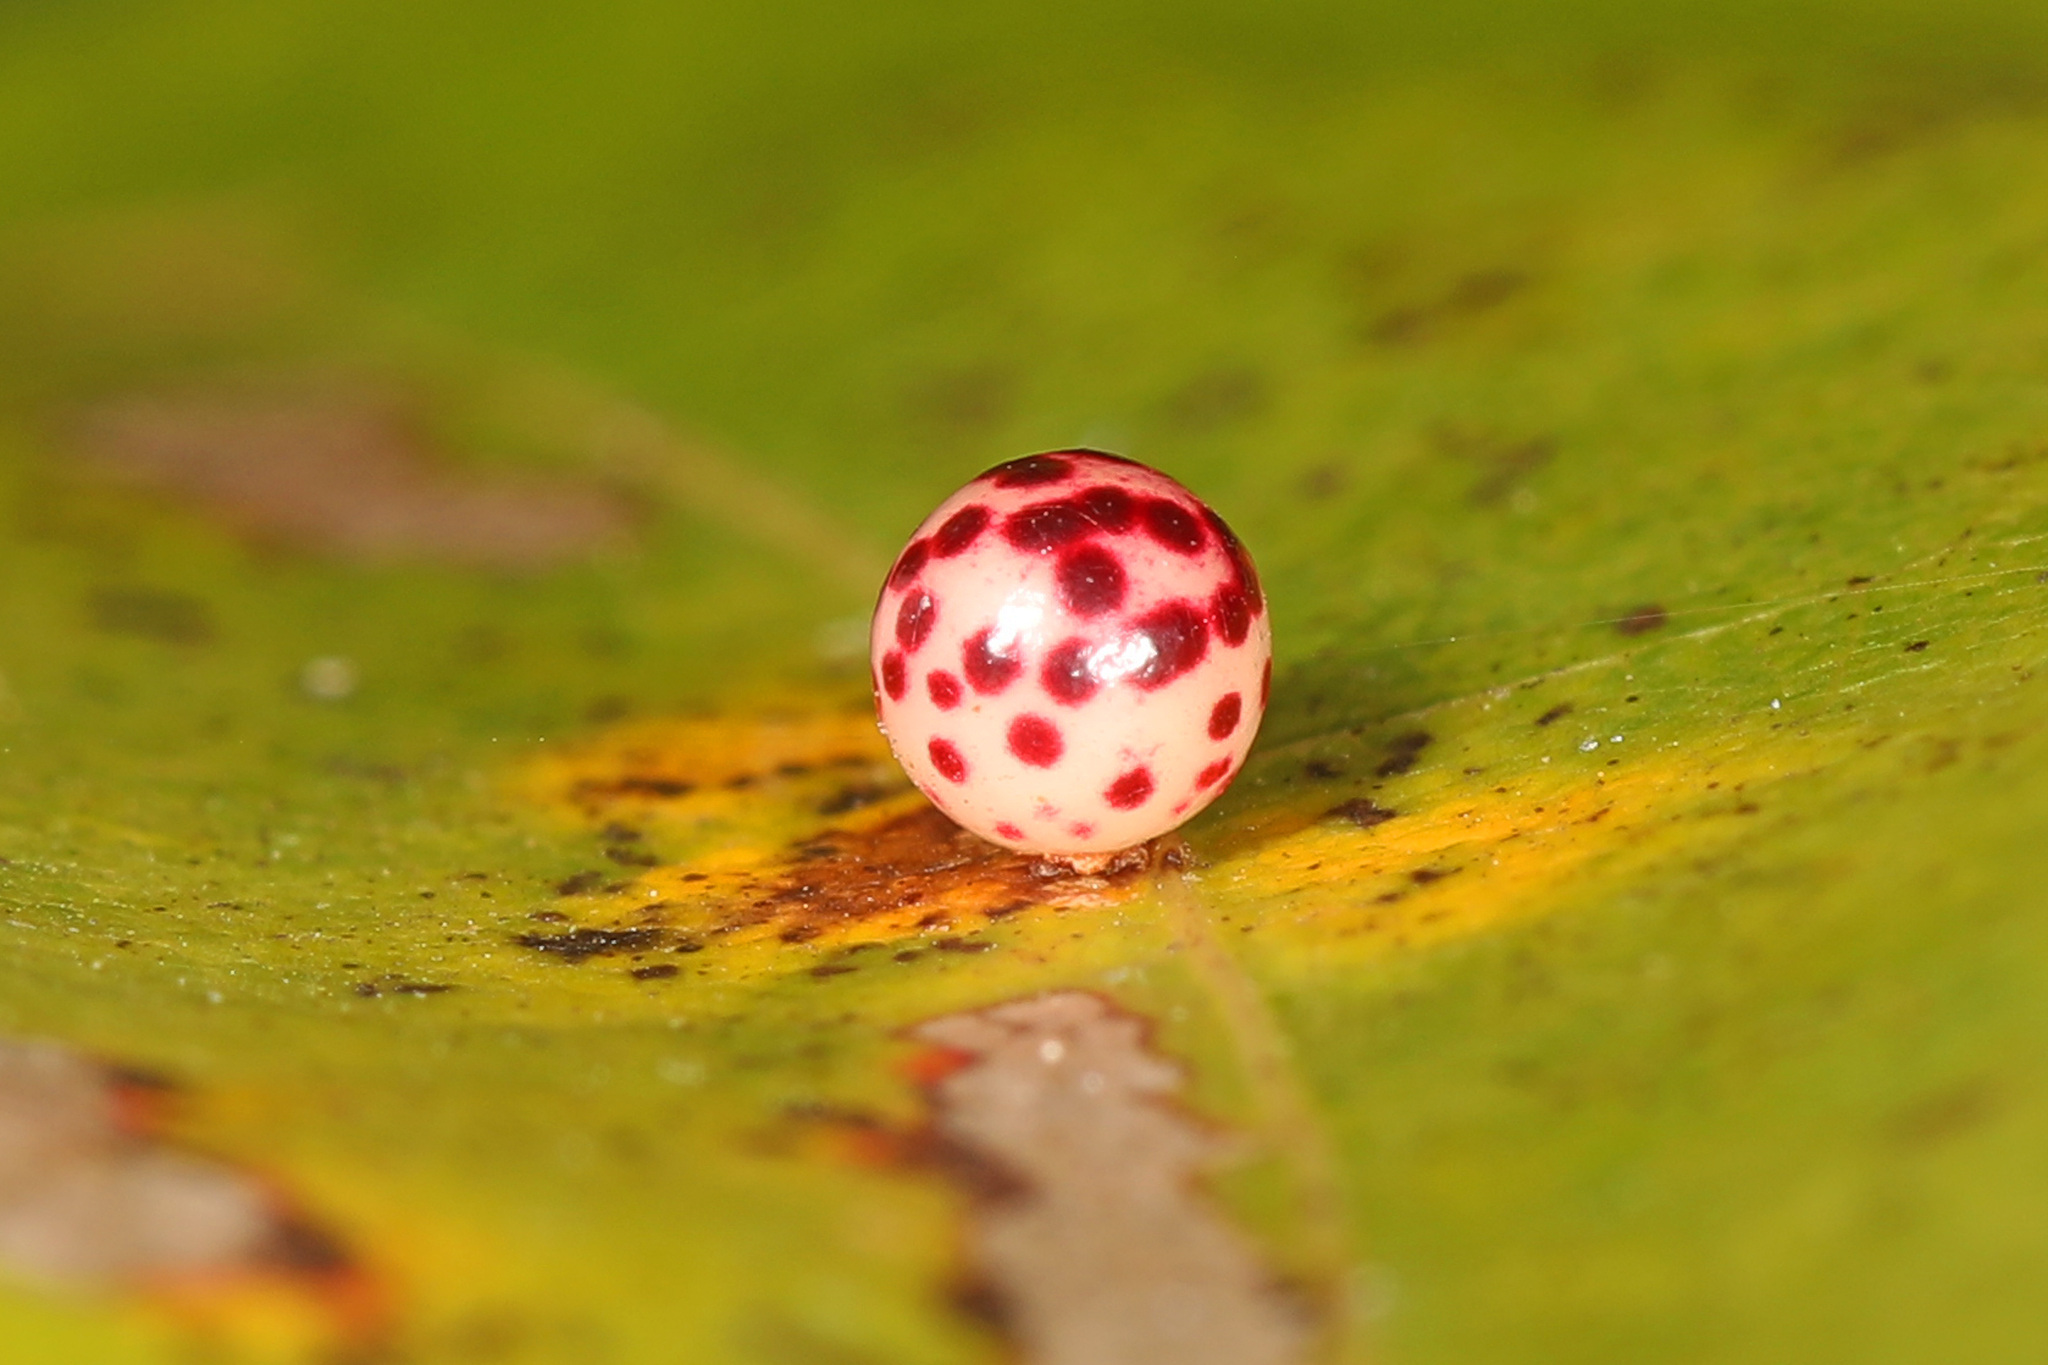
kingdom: Animalia
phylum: Arthropoda
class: Insecta
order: Hymenoptera
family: Cynipidae
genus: Zopheroteras
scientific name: Zopheroteras
